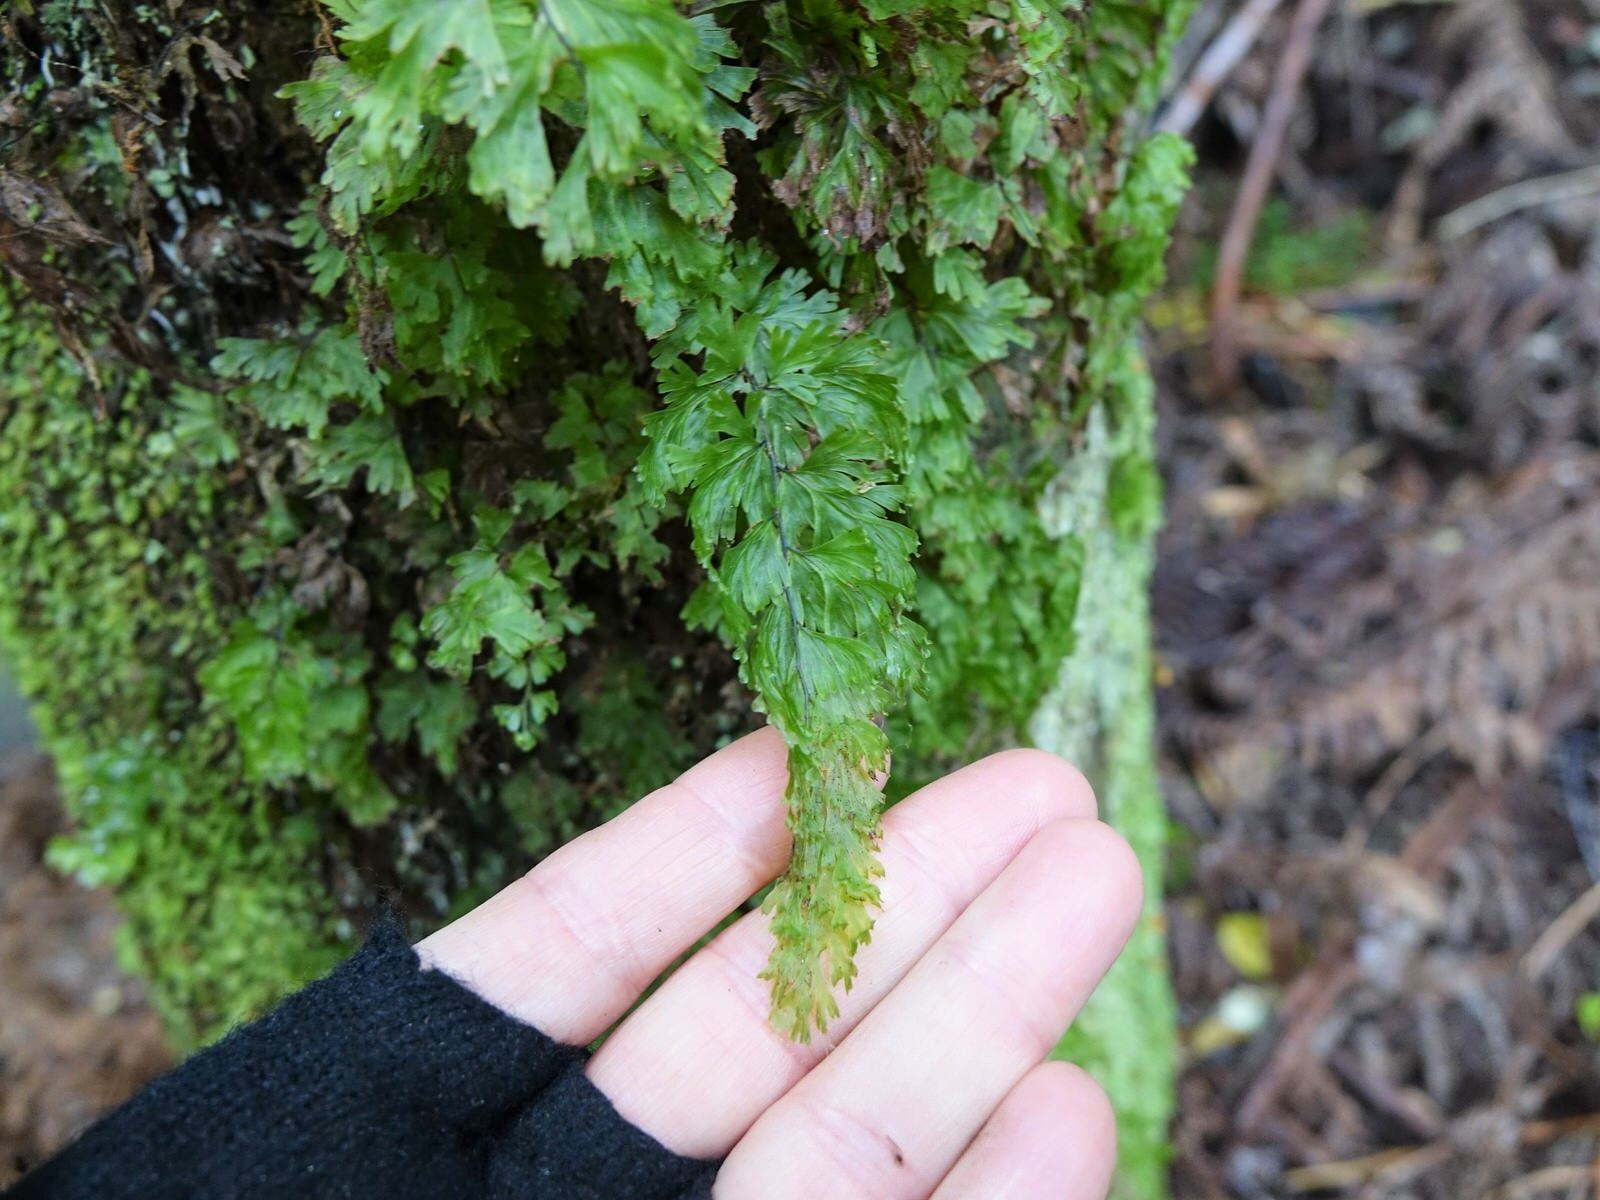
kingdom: Plantae
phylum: Tracheophyta
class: Polypodiopsida
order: Hymenophyllales
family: Hymenophyllaceae
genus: Hymenophyllum
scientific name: Hymenophyllum flabellatum
